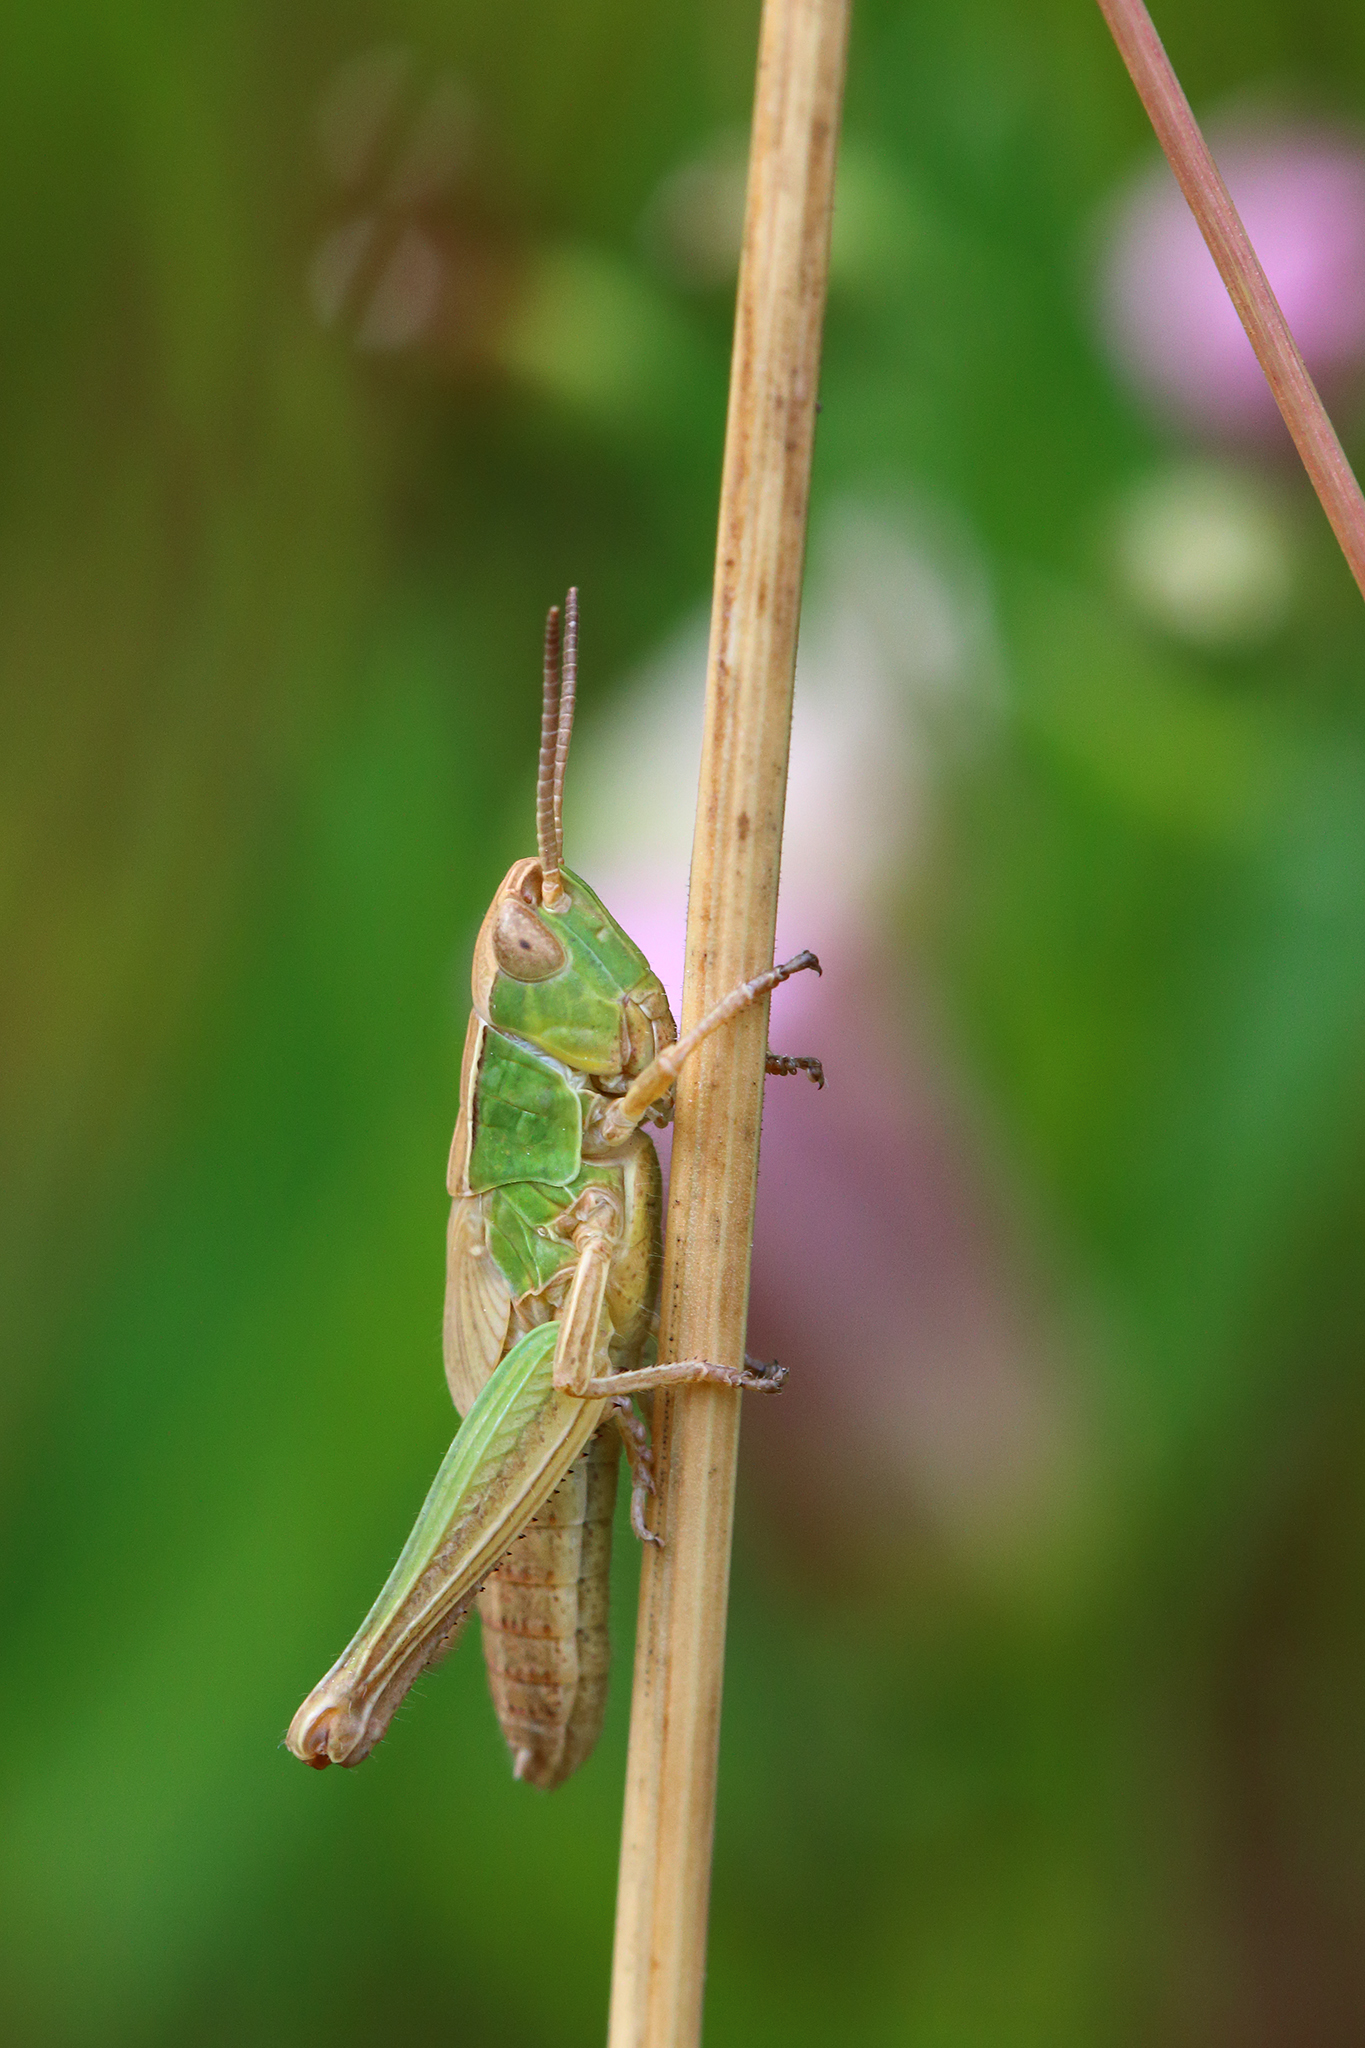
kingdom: Animalia
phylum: Arthropoda
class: Insecta
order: Orthoptera
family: Acrididae
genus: Chorthippus
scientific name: Chorthippus albomarginatus
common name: Lesser marsh grasshopper
